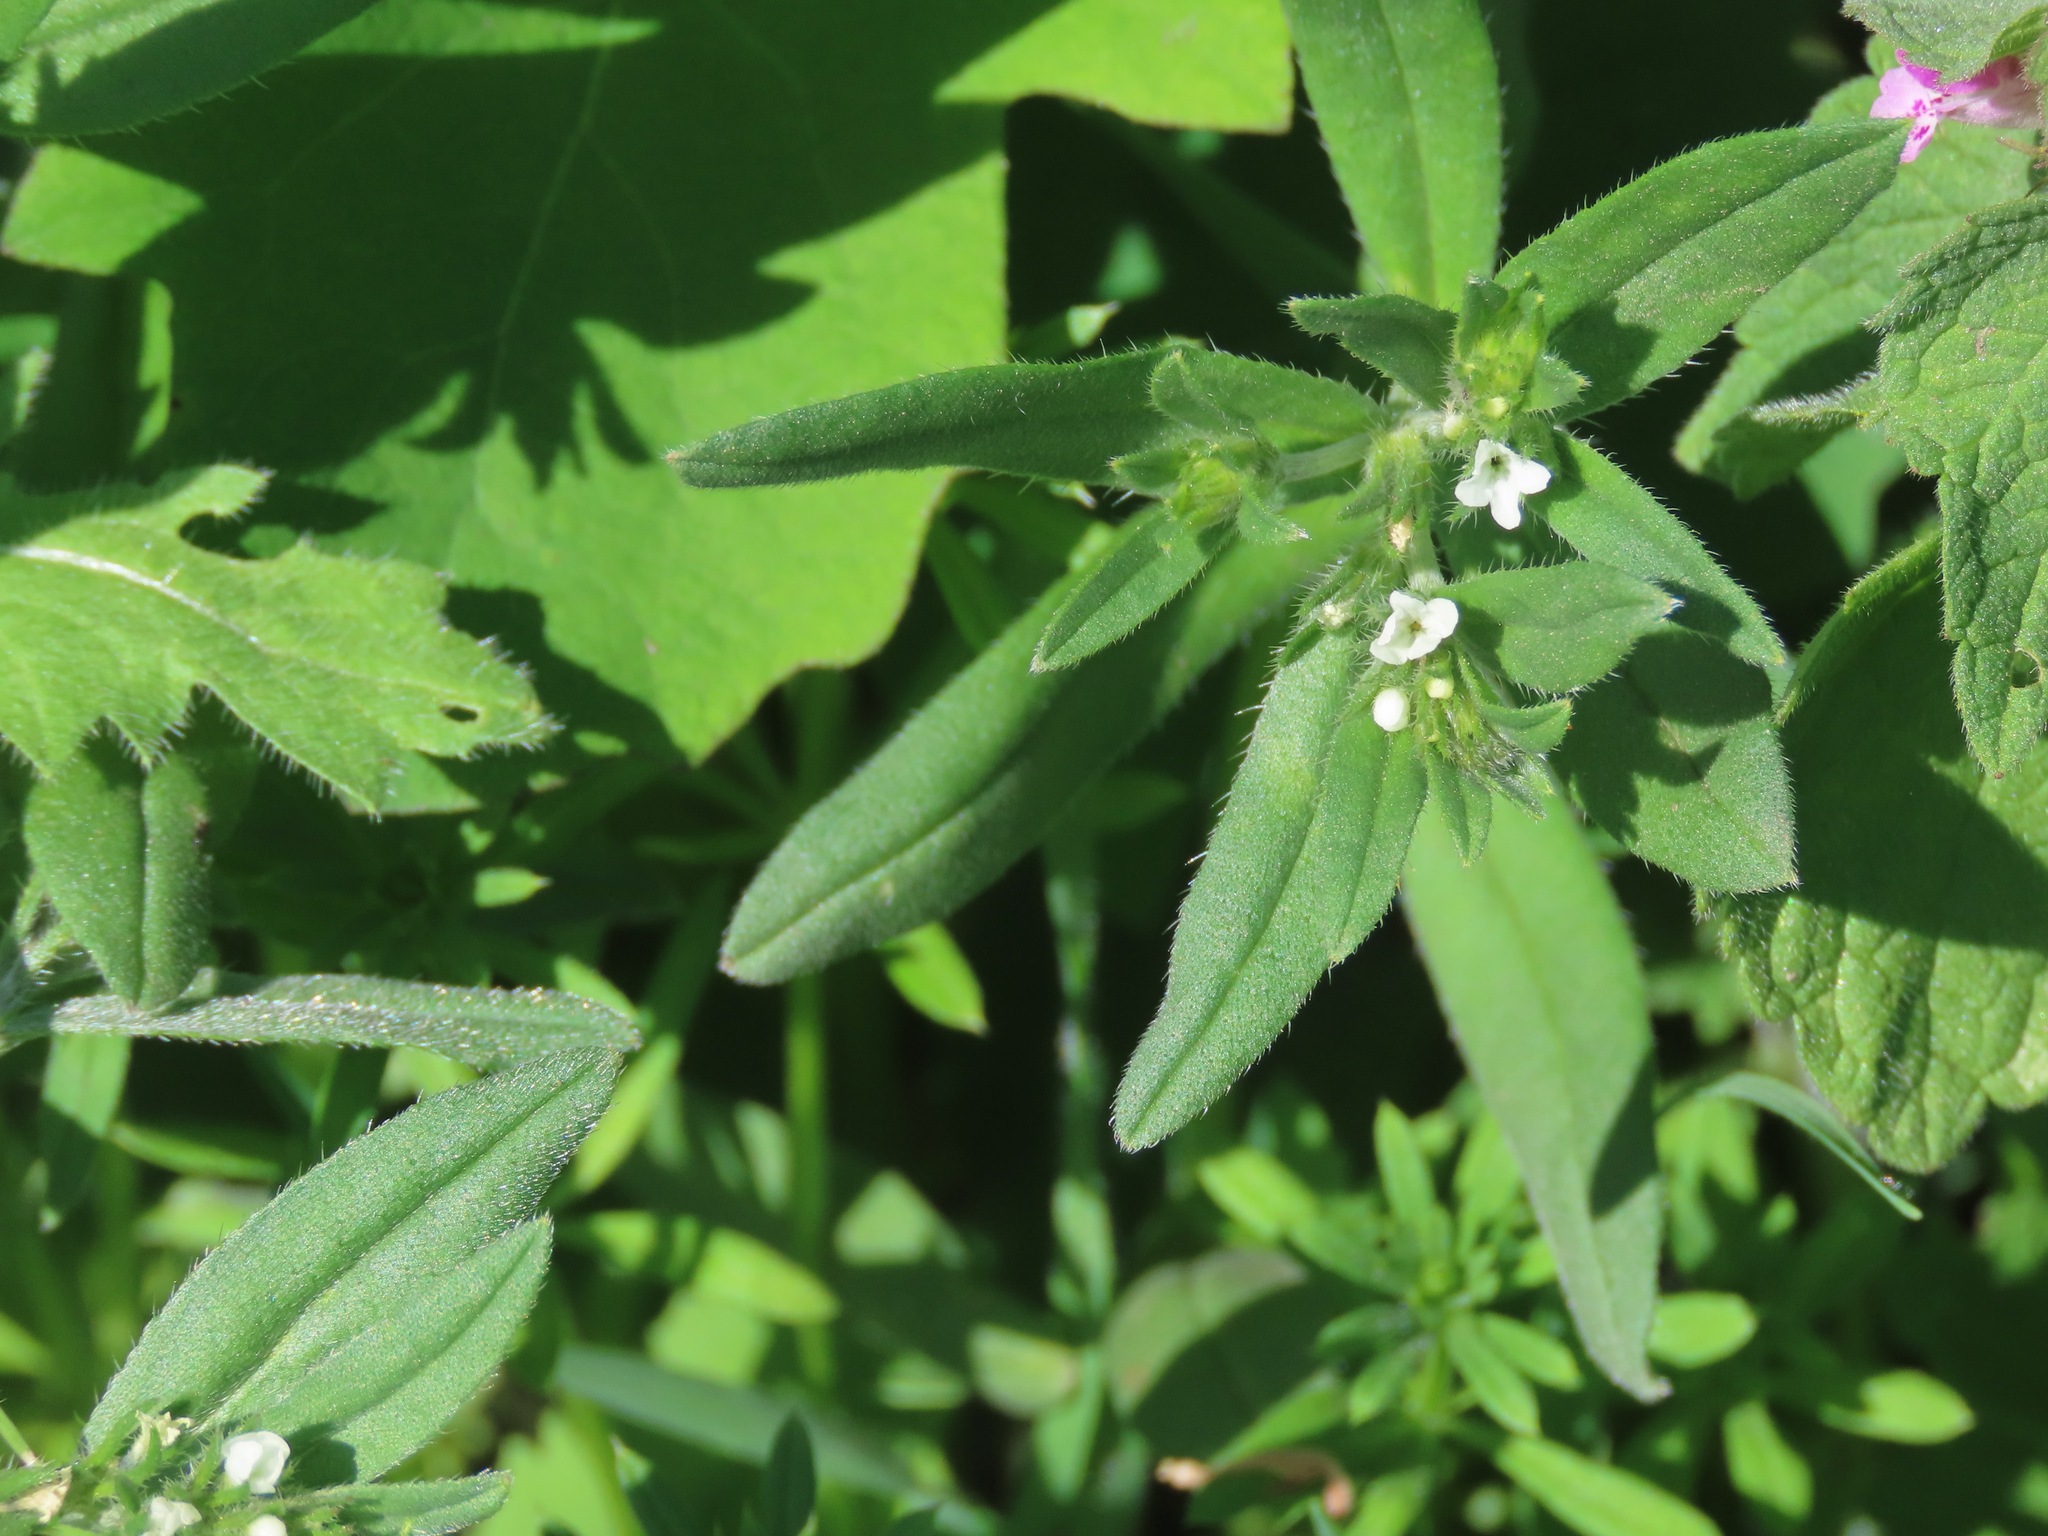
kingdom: Plantae
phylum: Tracheophyta
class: Magnoliopsida
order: Boraginales
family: Boraginaceae
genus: Buglossoides
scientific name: Buglossoides arvensis
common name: Corn gromwell
